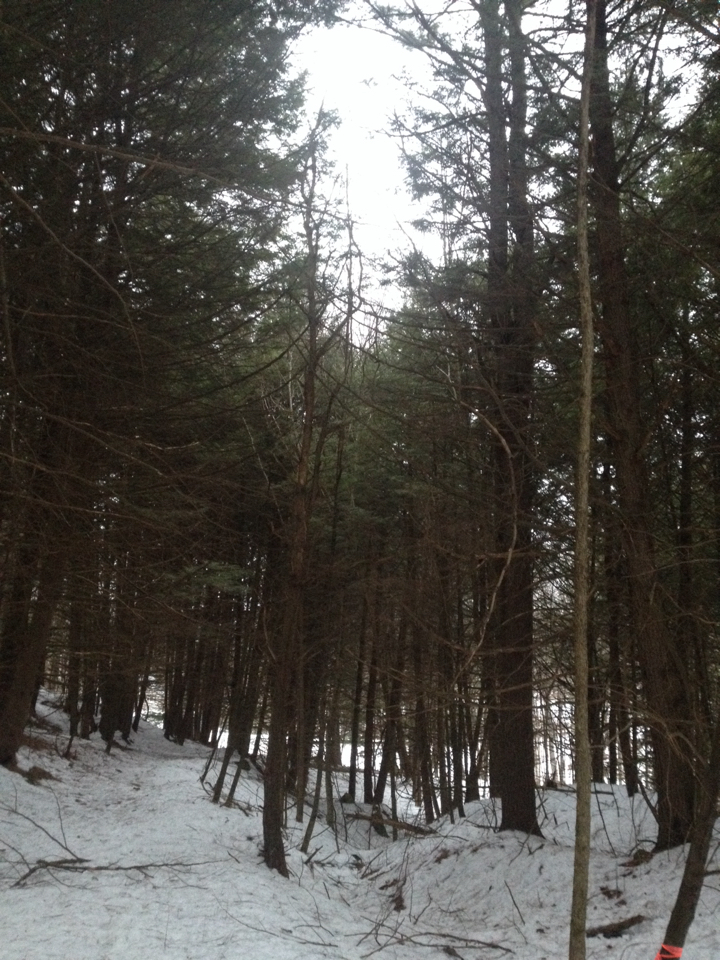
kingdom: Plantae
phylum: Tracheophyta
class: Pinopsida
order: Pinales
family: Pinaceae
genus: Tsuga
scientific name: Tsuga canadensis
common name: Eastern hemlock
